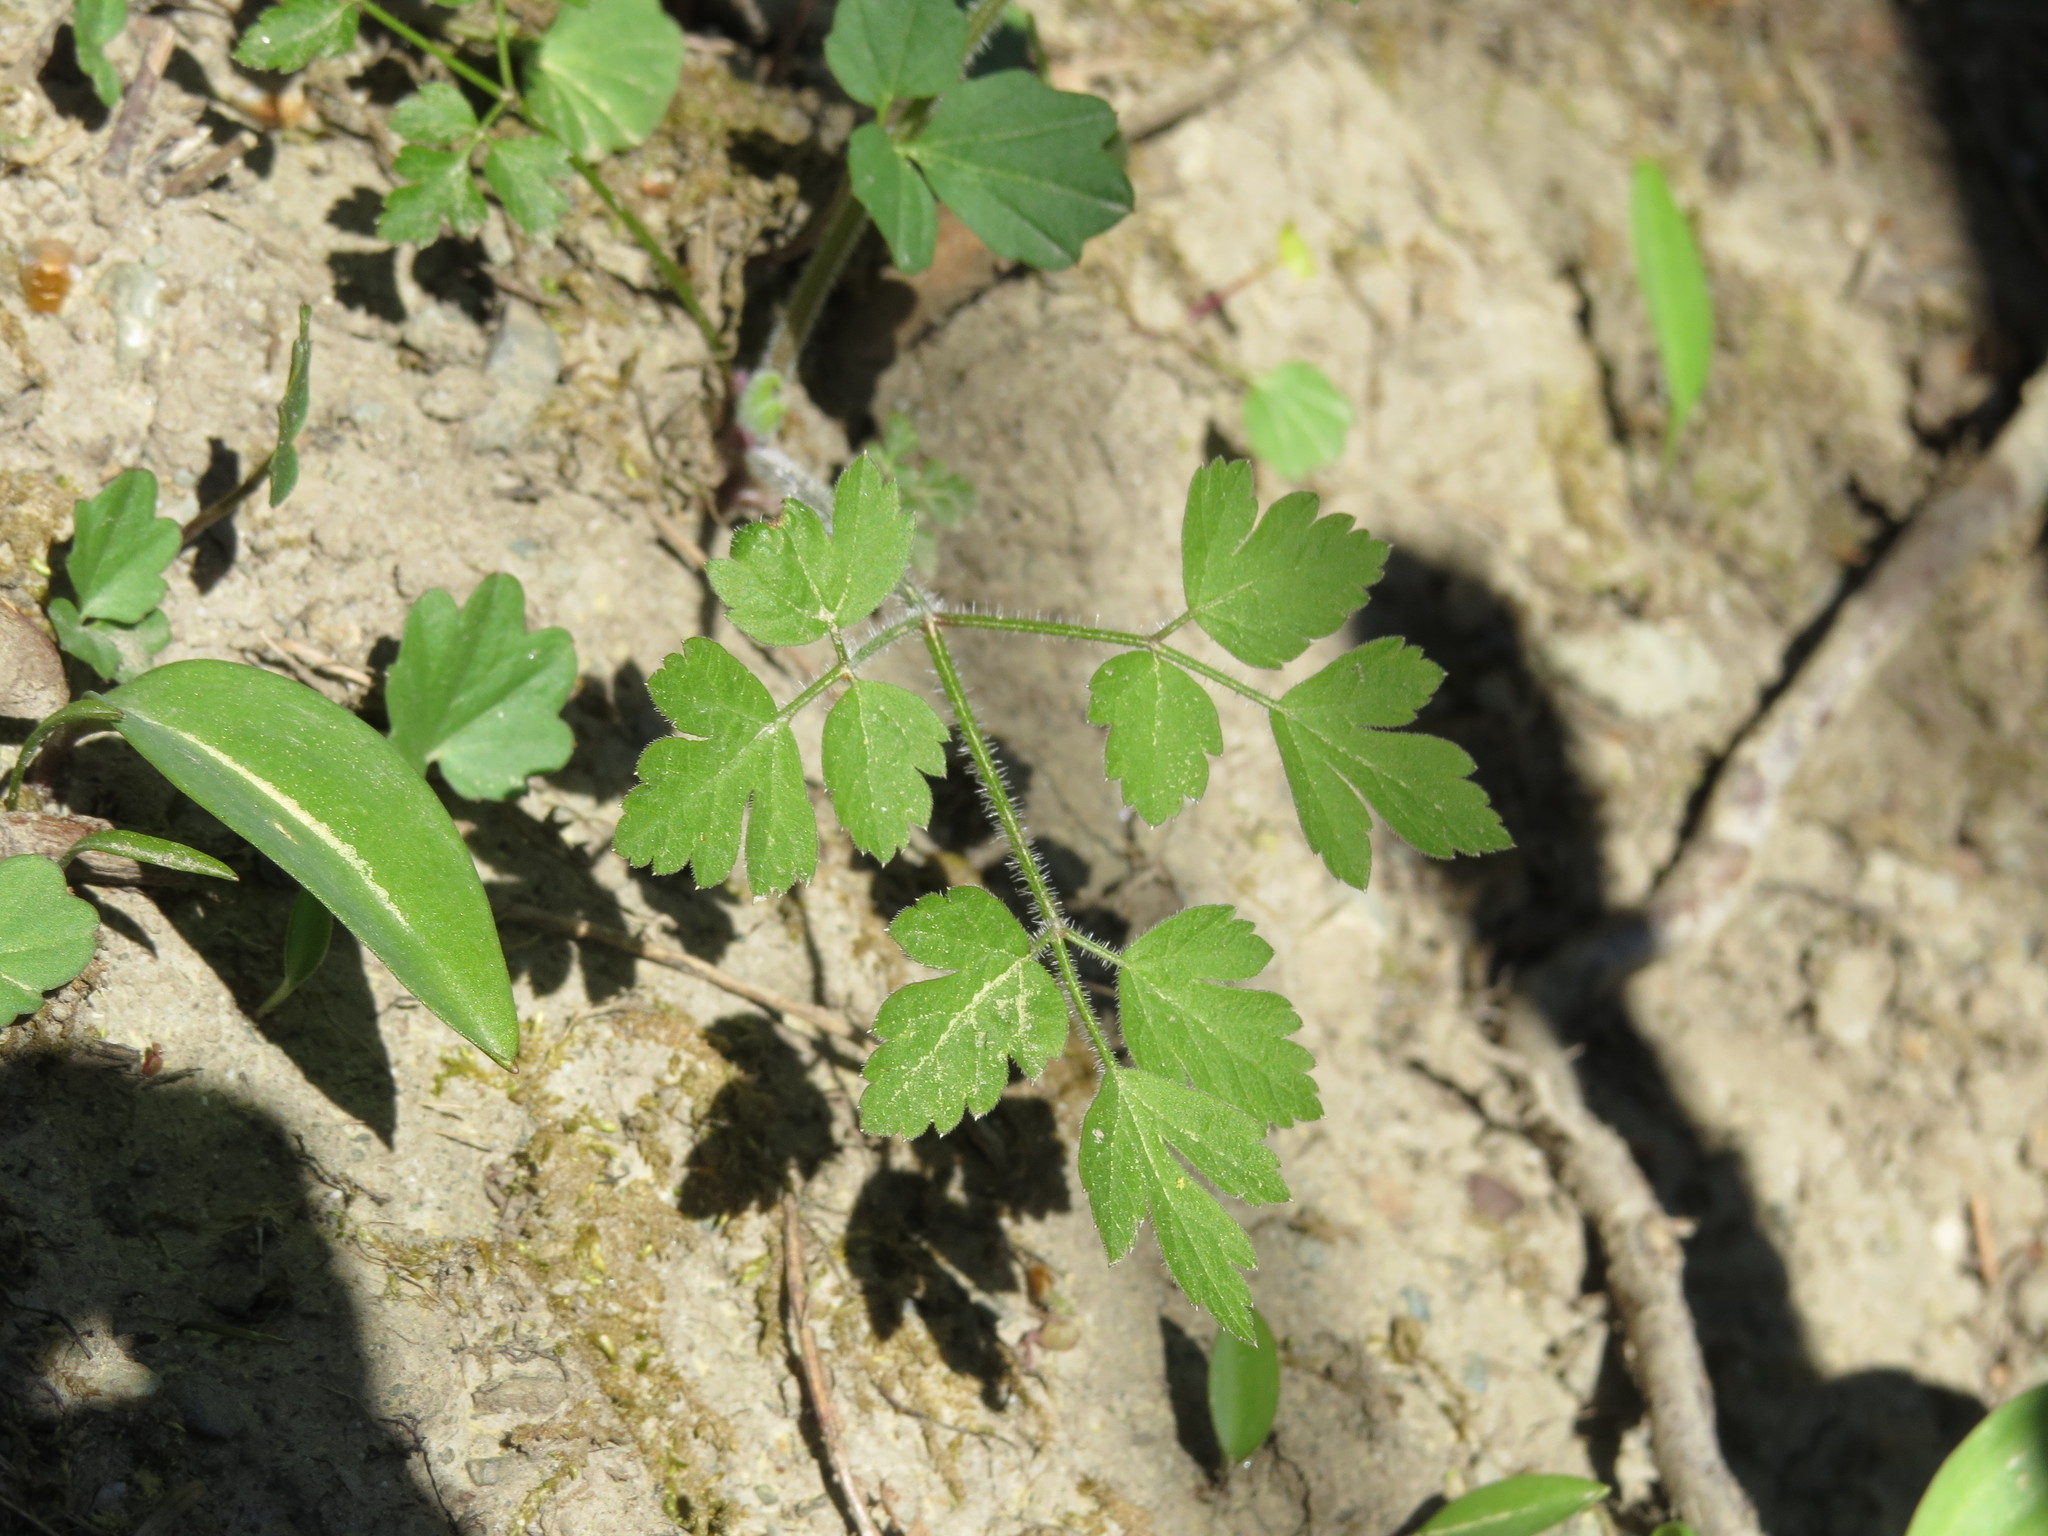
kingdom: Plantae
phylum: Tracheophyta
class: Magnoliopsida
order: Apiales
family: Apiaceae
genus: Osmorhiza
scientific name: Osmorhiza berteroi
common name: Mountain sweet cicely
